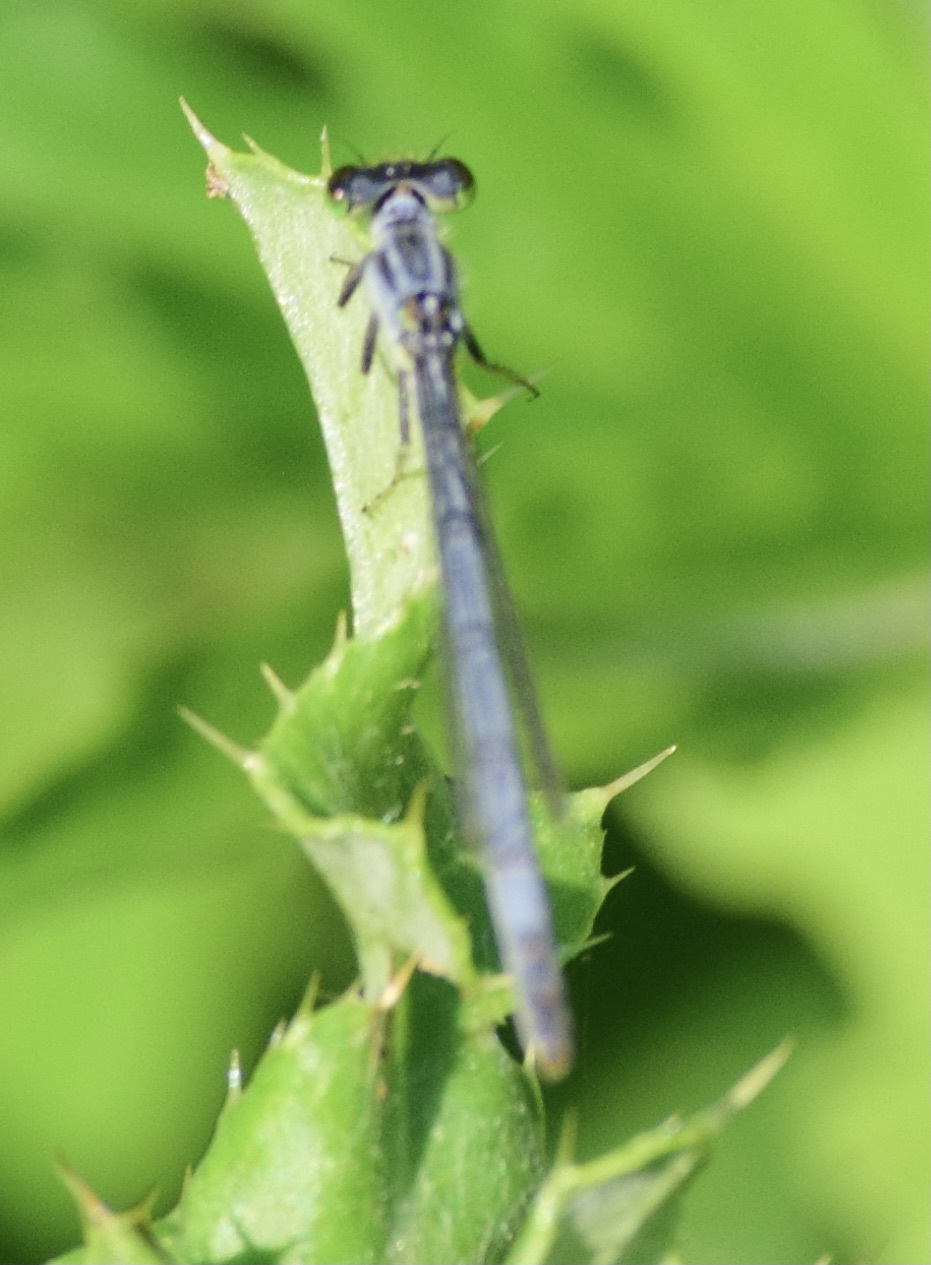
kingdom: Animalia
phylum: Arthropoda
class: Insecta
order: Odonata
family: Coenagrionidae
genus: Ischnura
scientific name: Ischnura verticalis
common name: Eastern forktail
